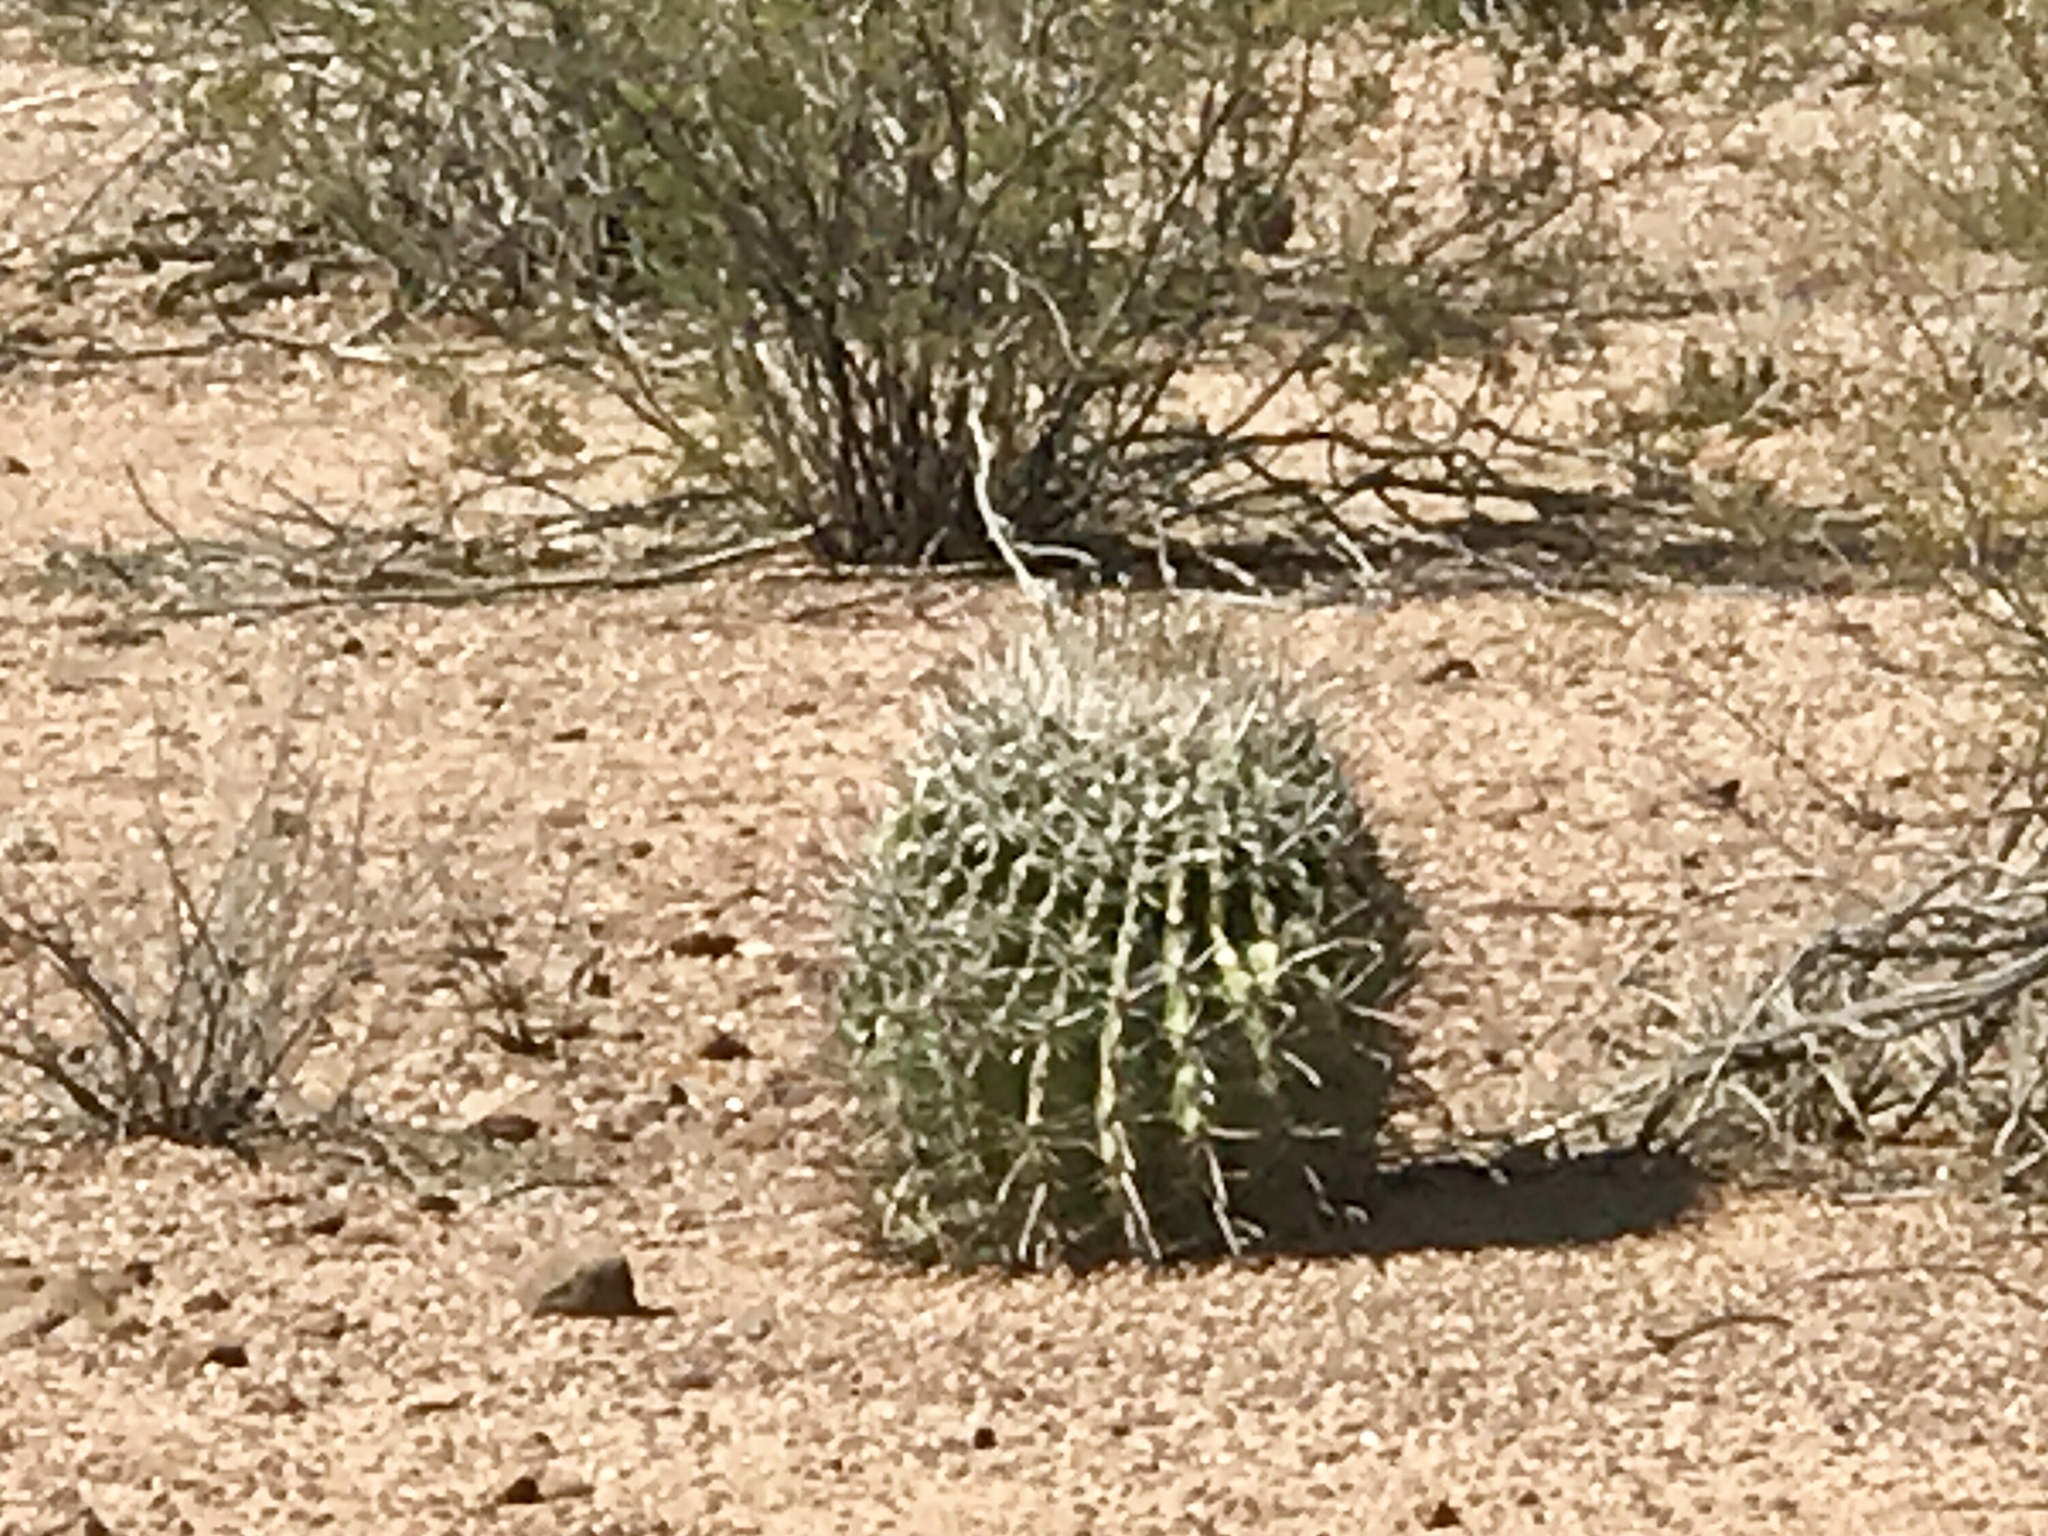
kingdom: Plantae
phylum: Tracheophyta
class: Magnoliopsida
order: Caryophyllales
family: Cactaceae
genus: Ferocactus
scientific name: Ferocactus wislizeni
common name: Candy barrel cactus
